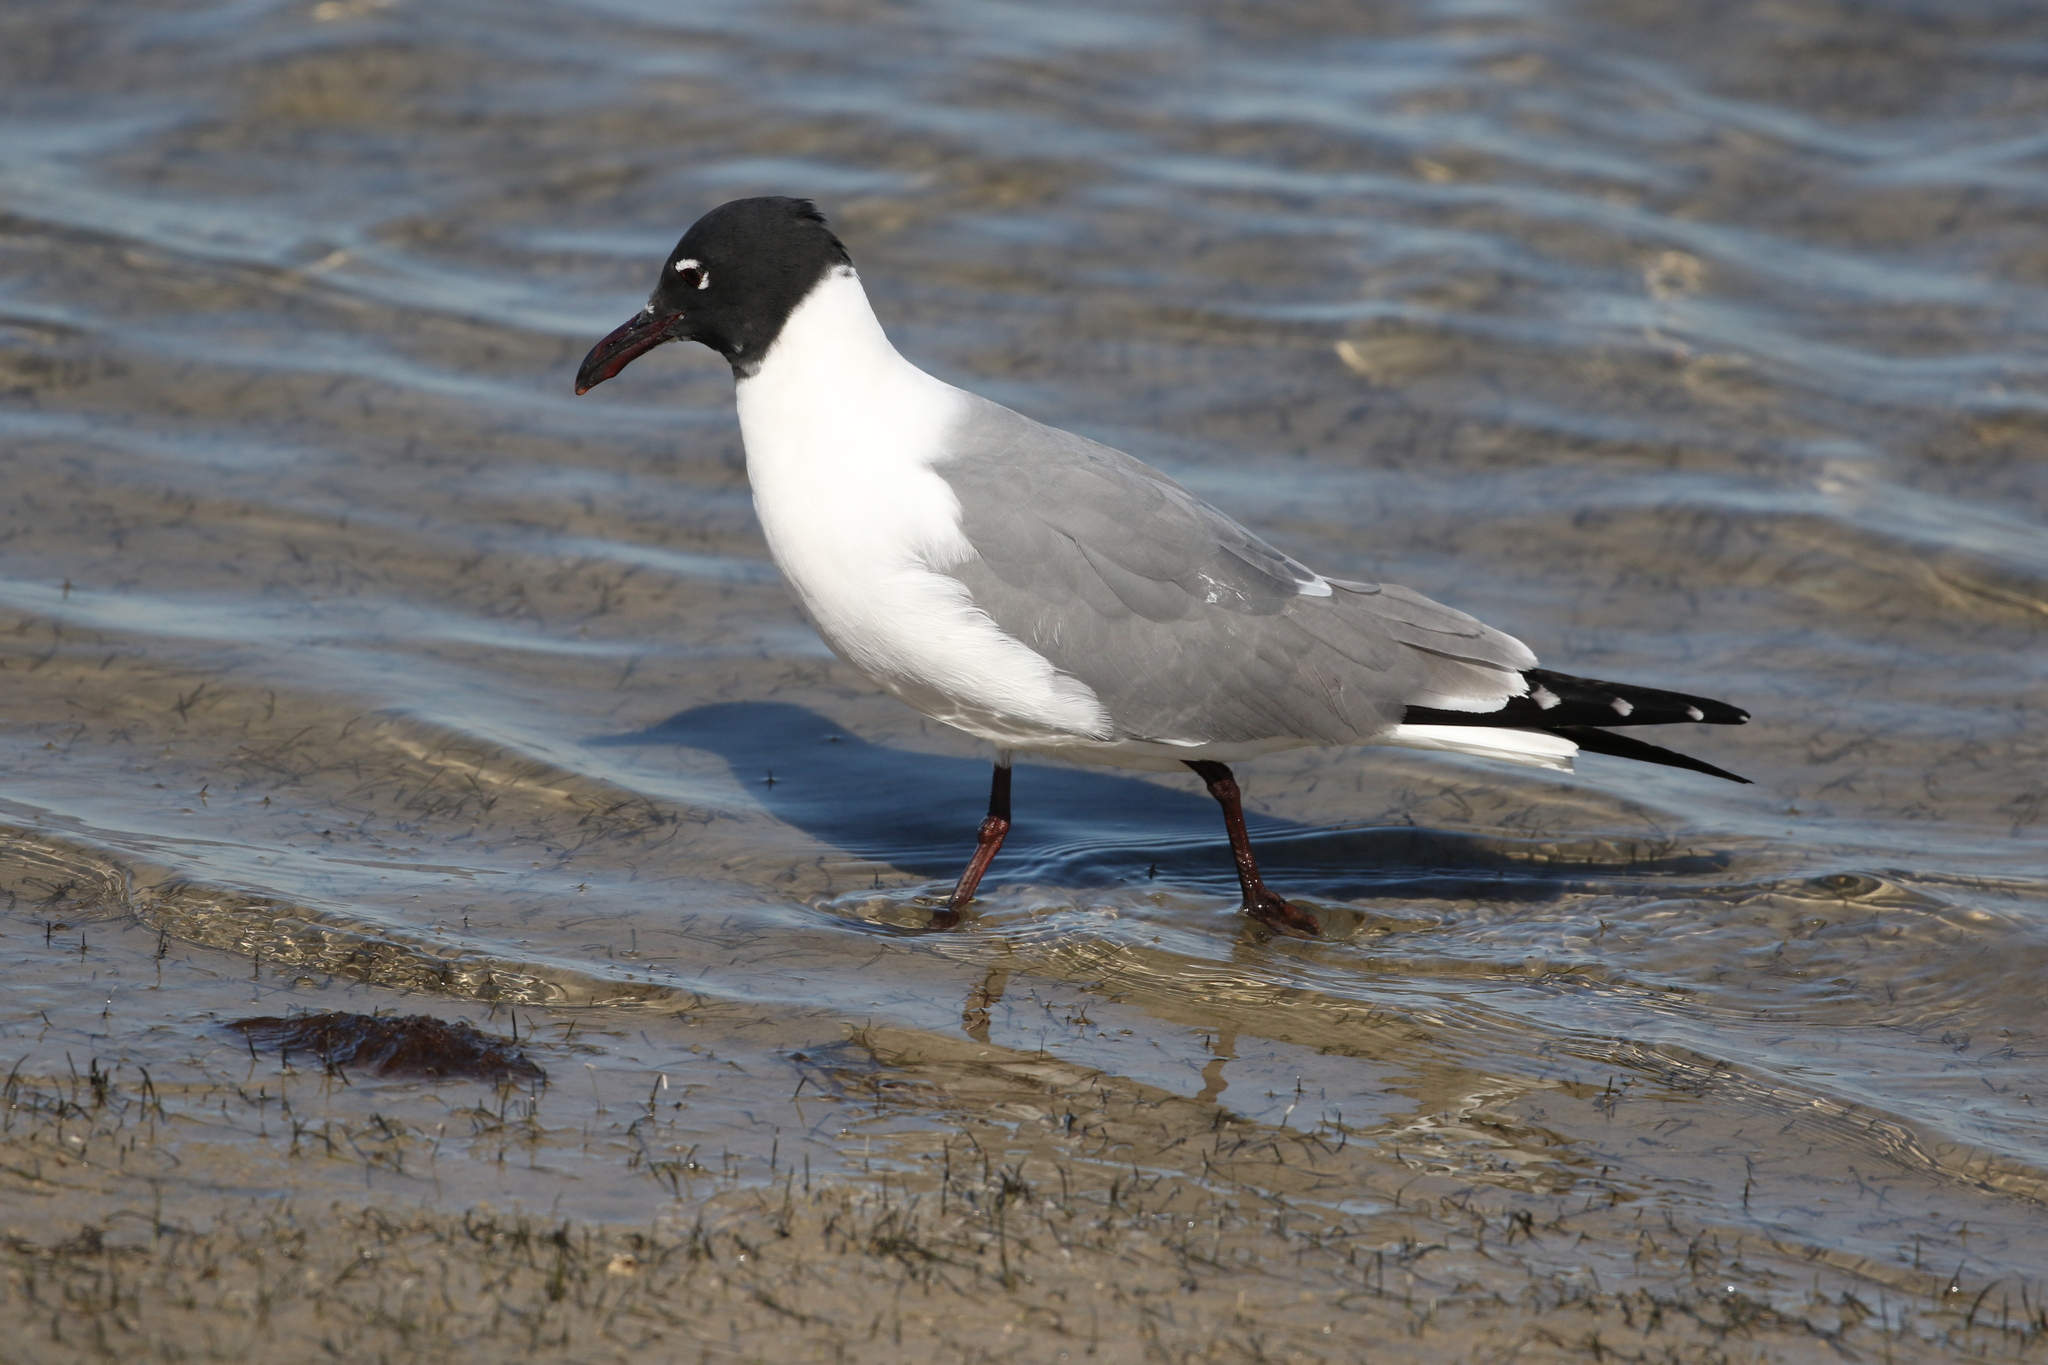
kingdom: Animalia
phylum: Chordata
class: Aves
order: Charadriiformes
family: Laridae
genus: Leucophaeus
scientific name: Leucophaeus atricilla
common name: Laughing gull
